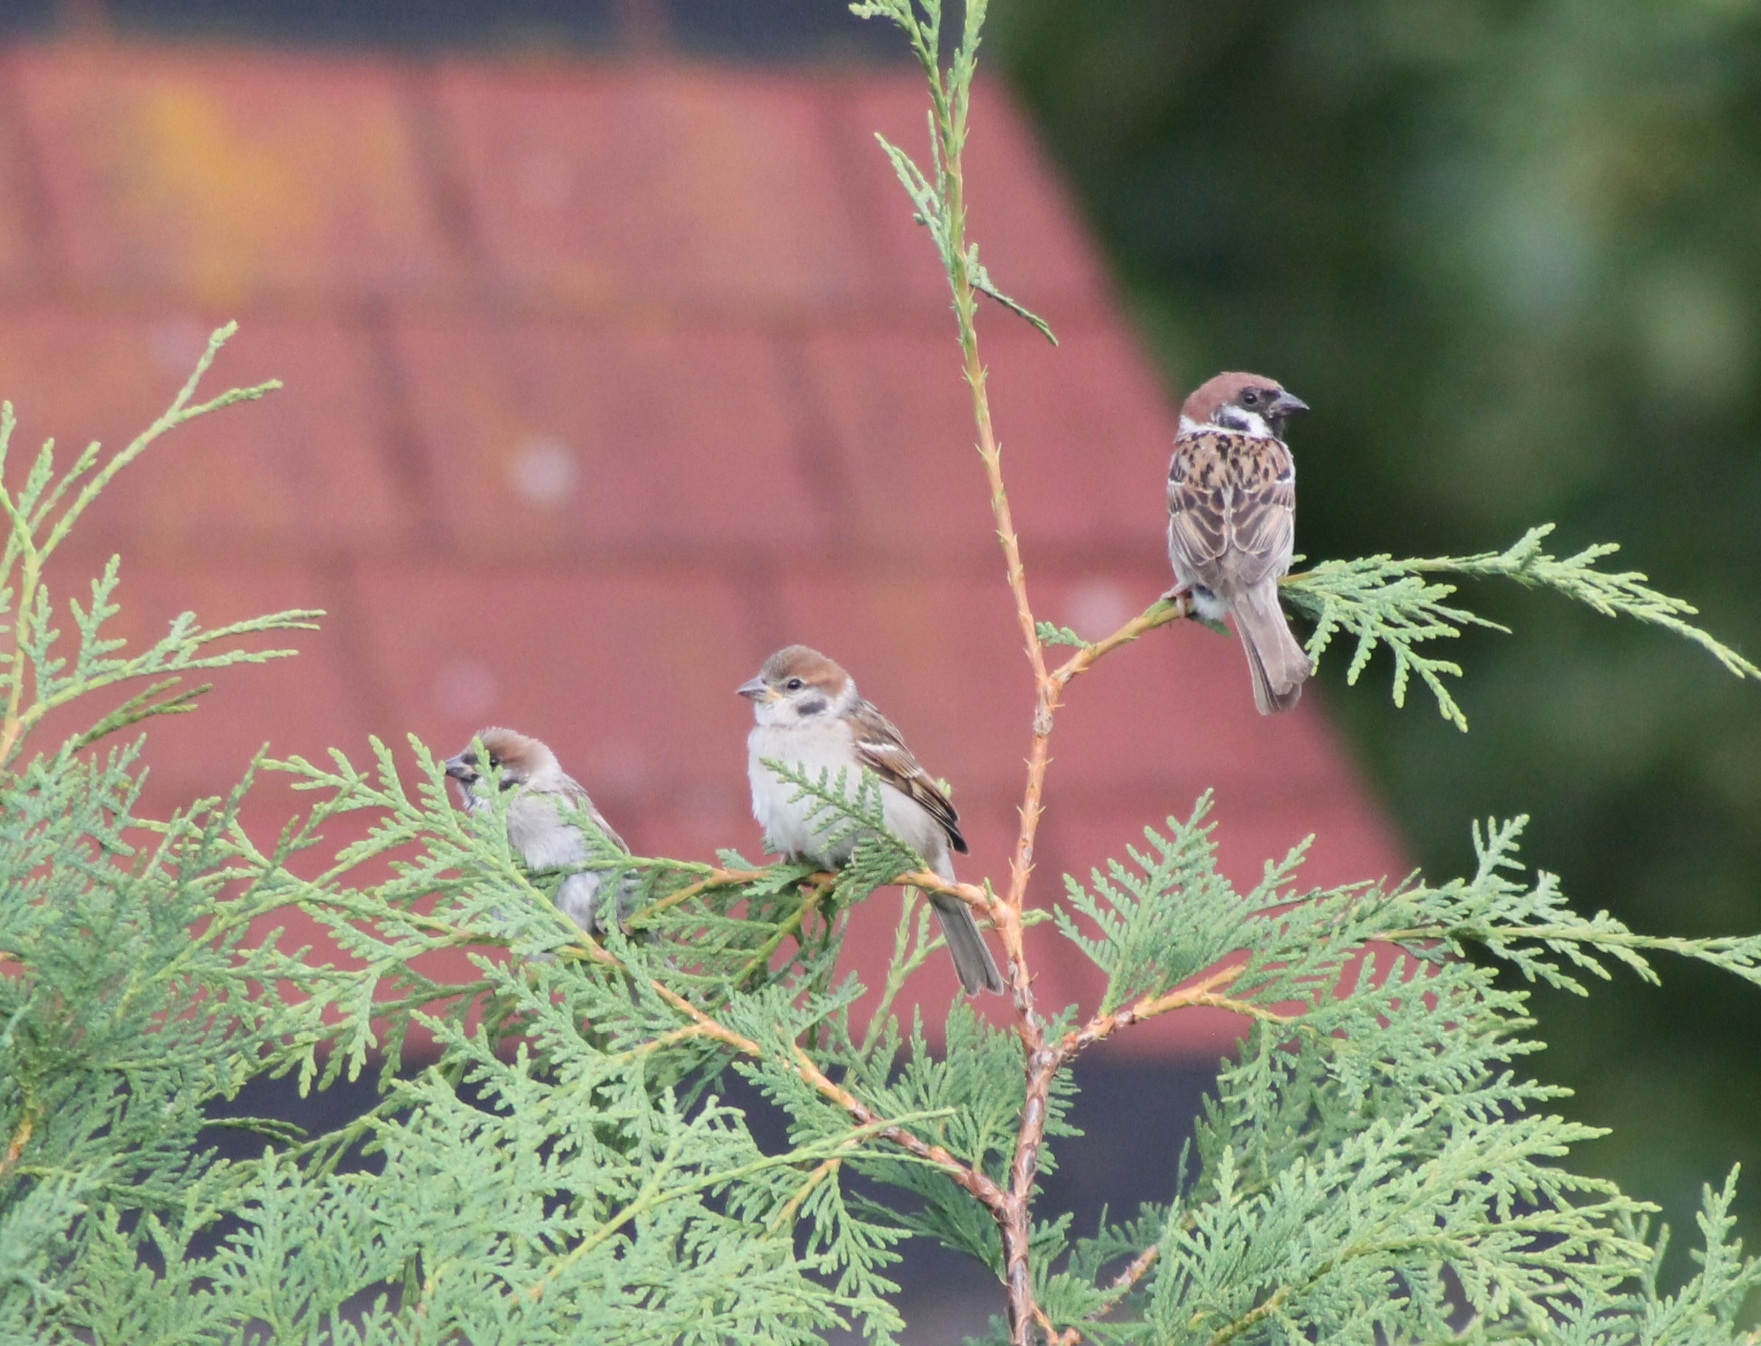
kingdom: Animalia
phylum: Chordata
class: Aves
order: Passeriformes
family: Passeridae
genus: Passer
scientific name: Passer montanus
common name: Eurasian tree sparrow
